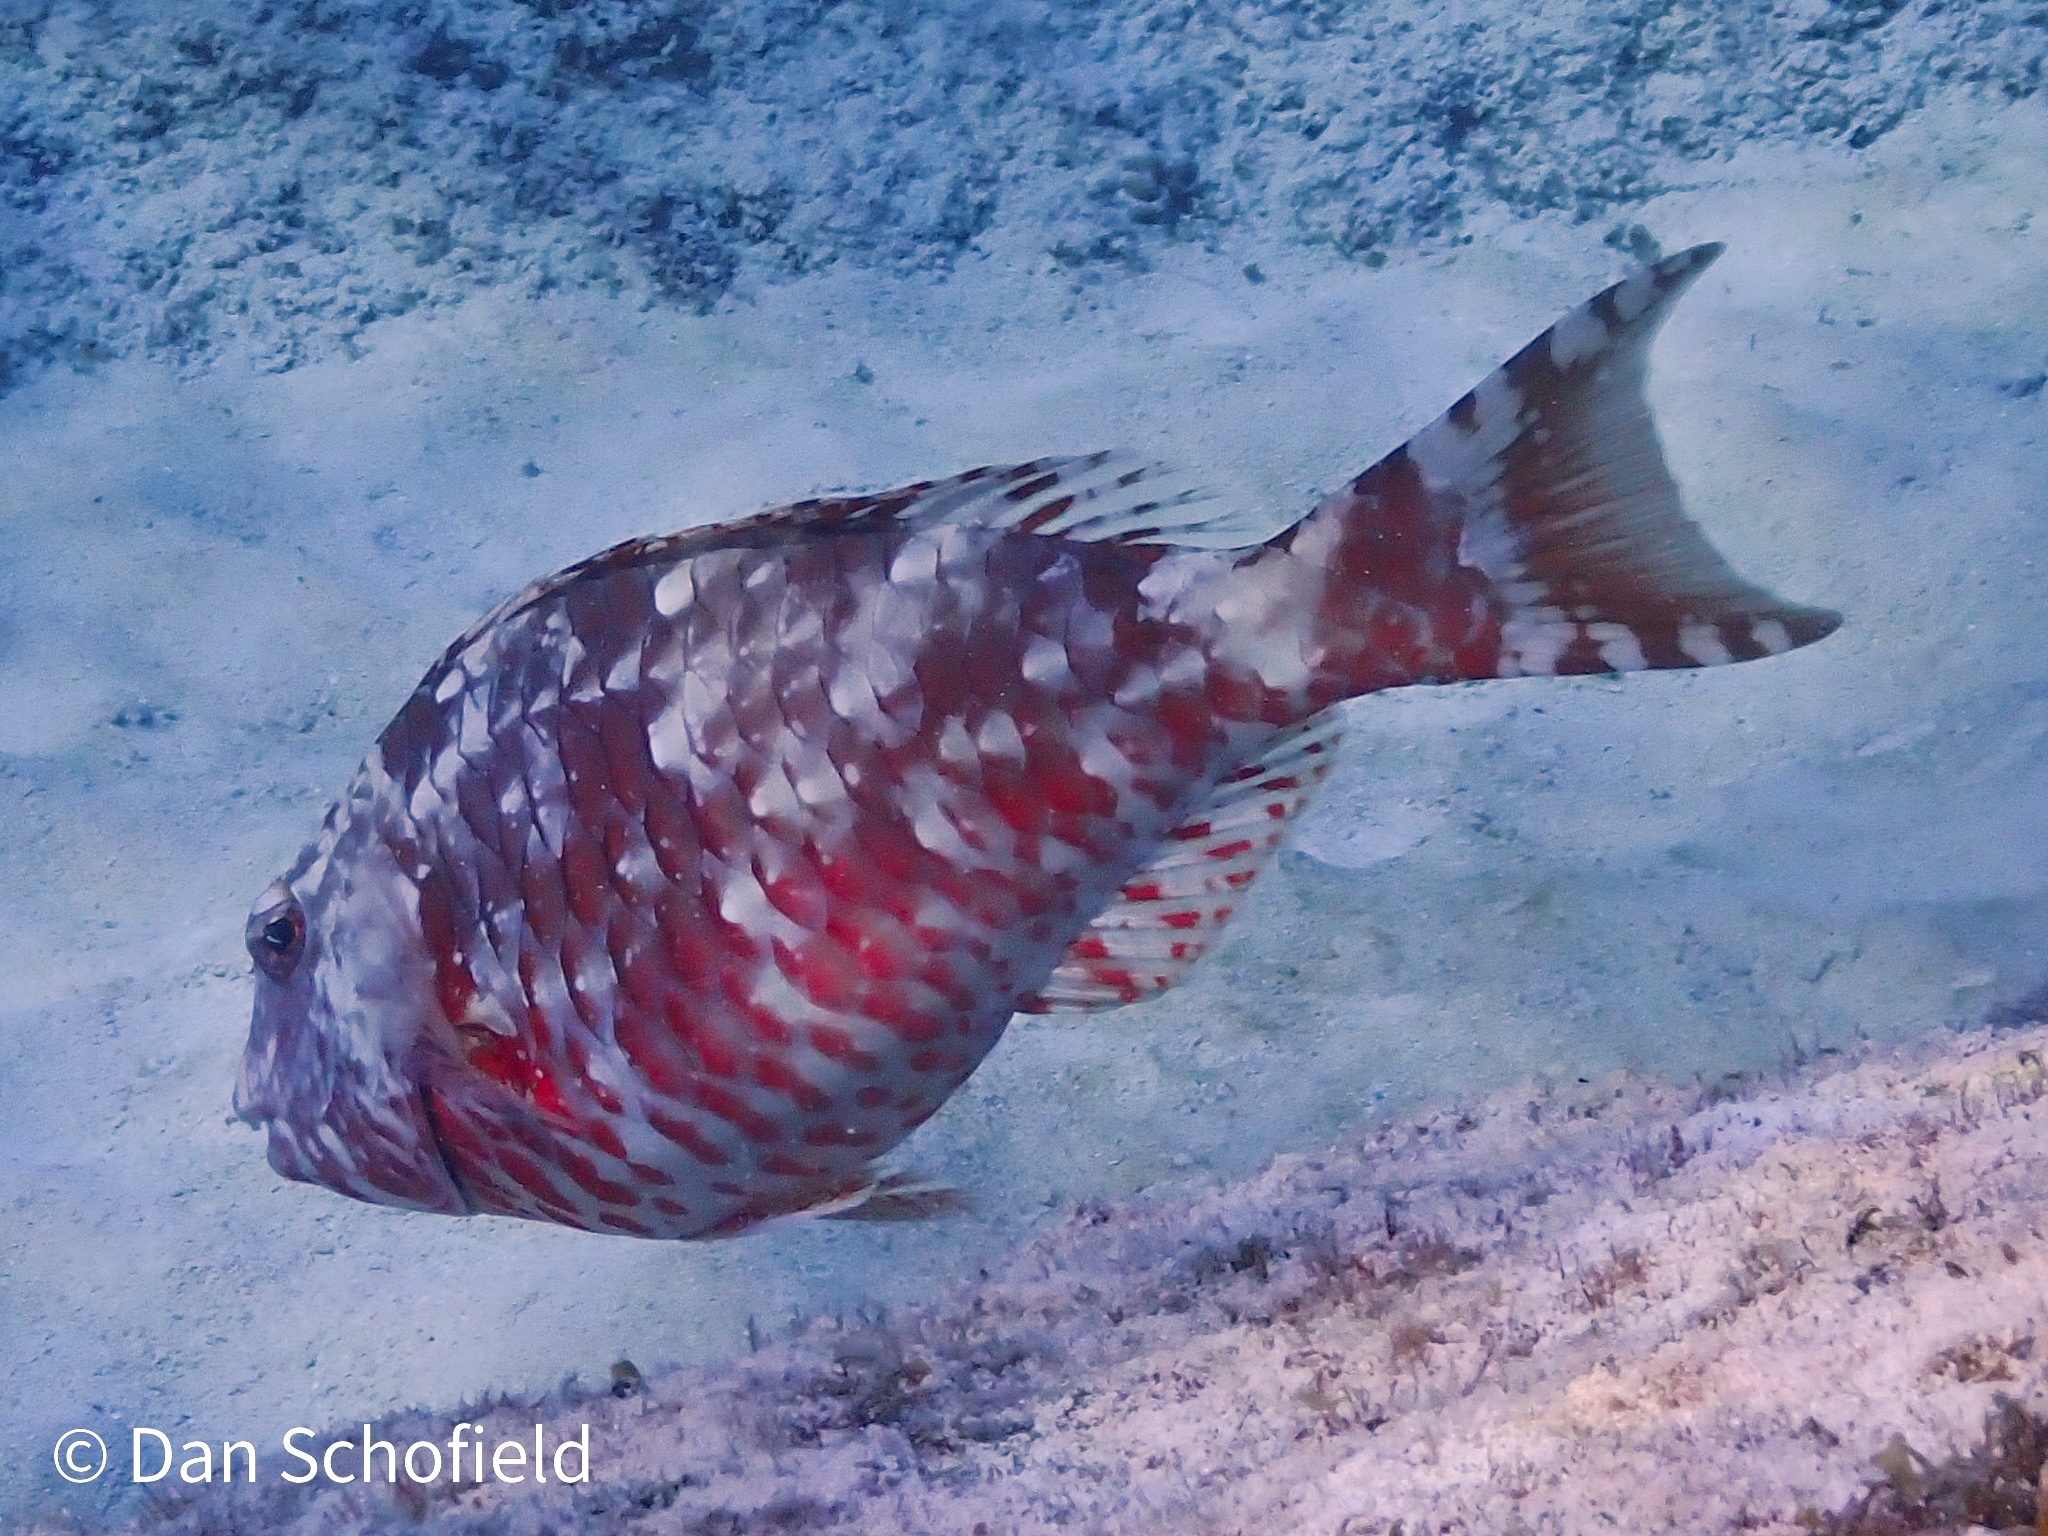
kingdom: Animalia
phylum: Chordata
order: Perciformes
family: Scaridae
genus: Sparisoma
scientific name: Sparisoma chrysopterum
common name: Redtail parrotfish
